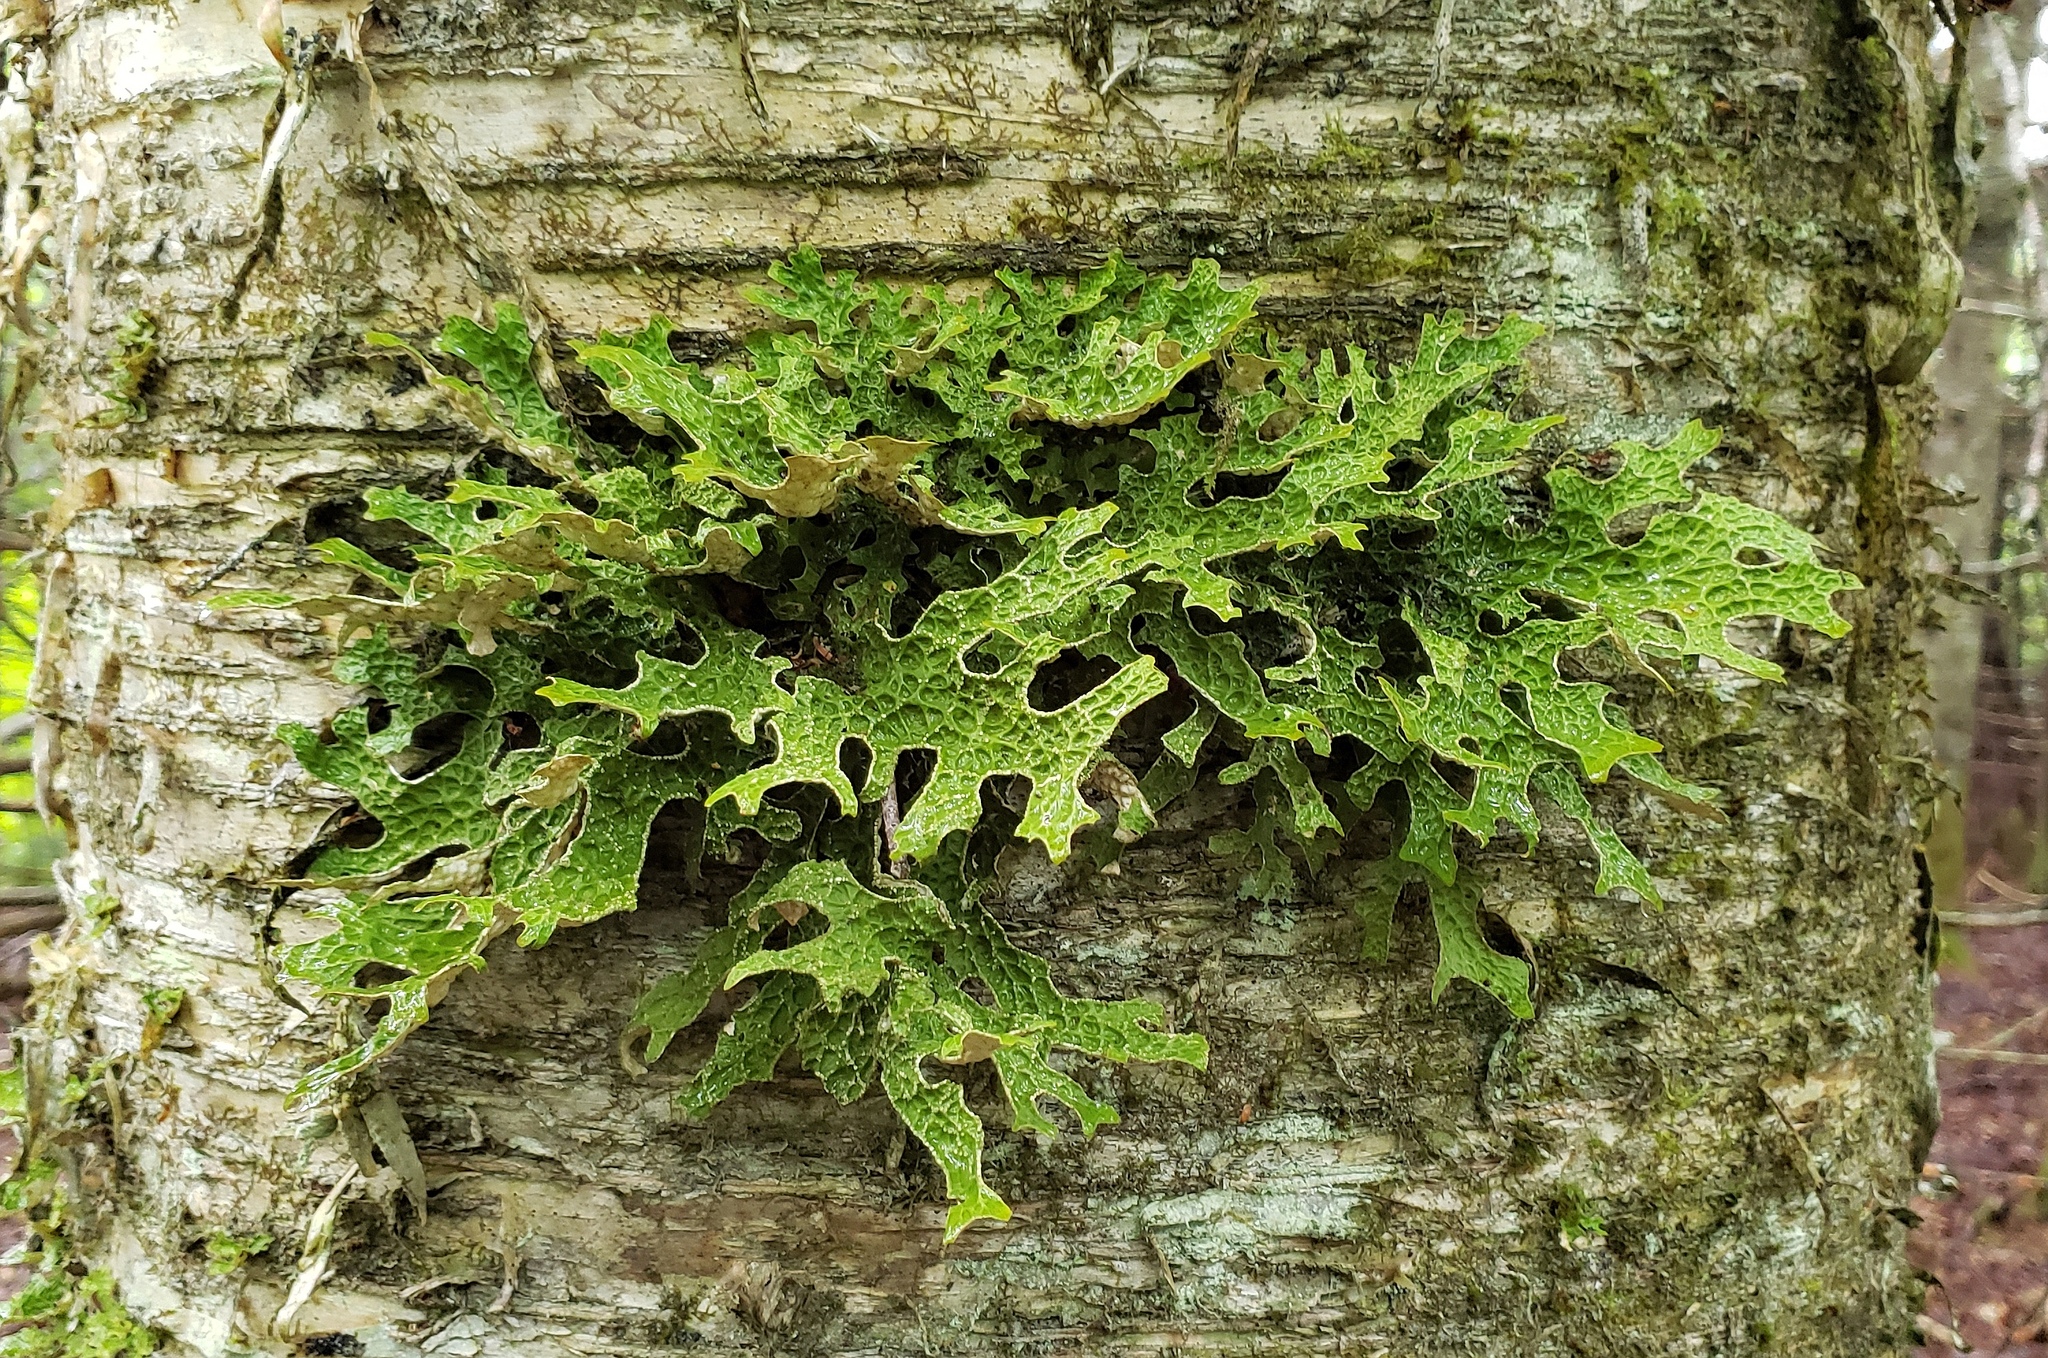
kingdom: Fungi
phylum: Ascomycota
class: Lecanoromycetes
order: Peltigerales
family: Lobariaceae
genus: Lobaria
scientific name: Lobaria pulmonaria
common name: Lungwort
